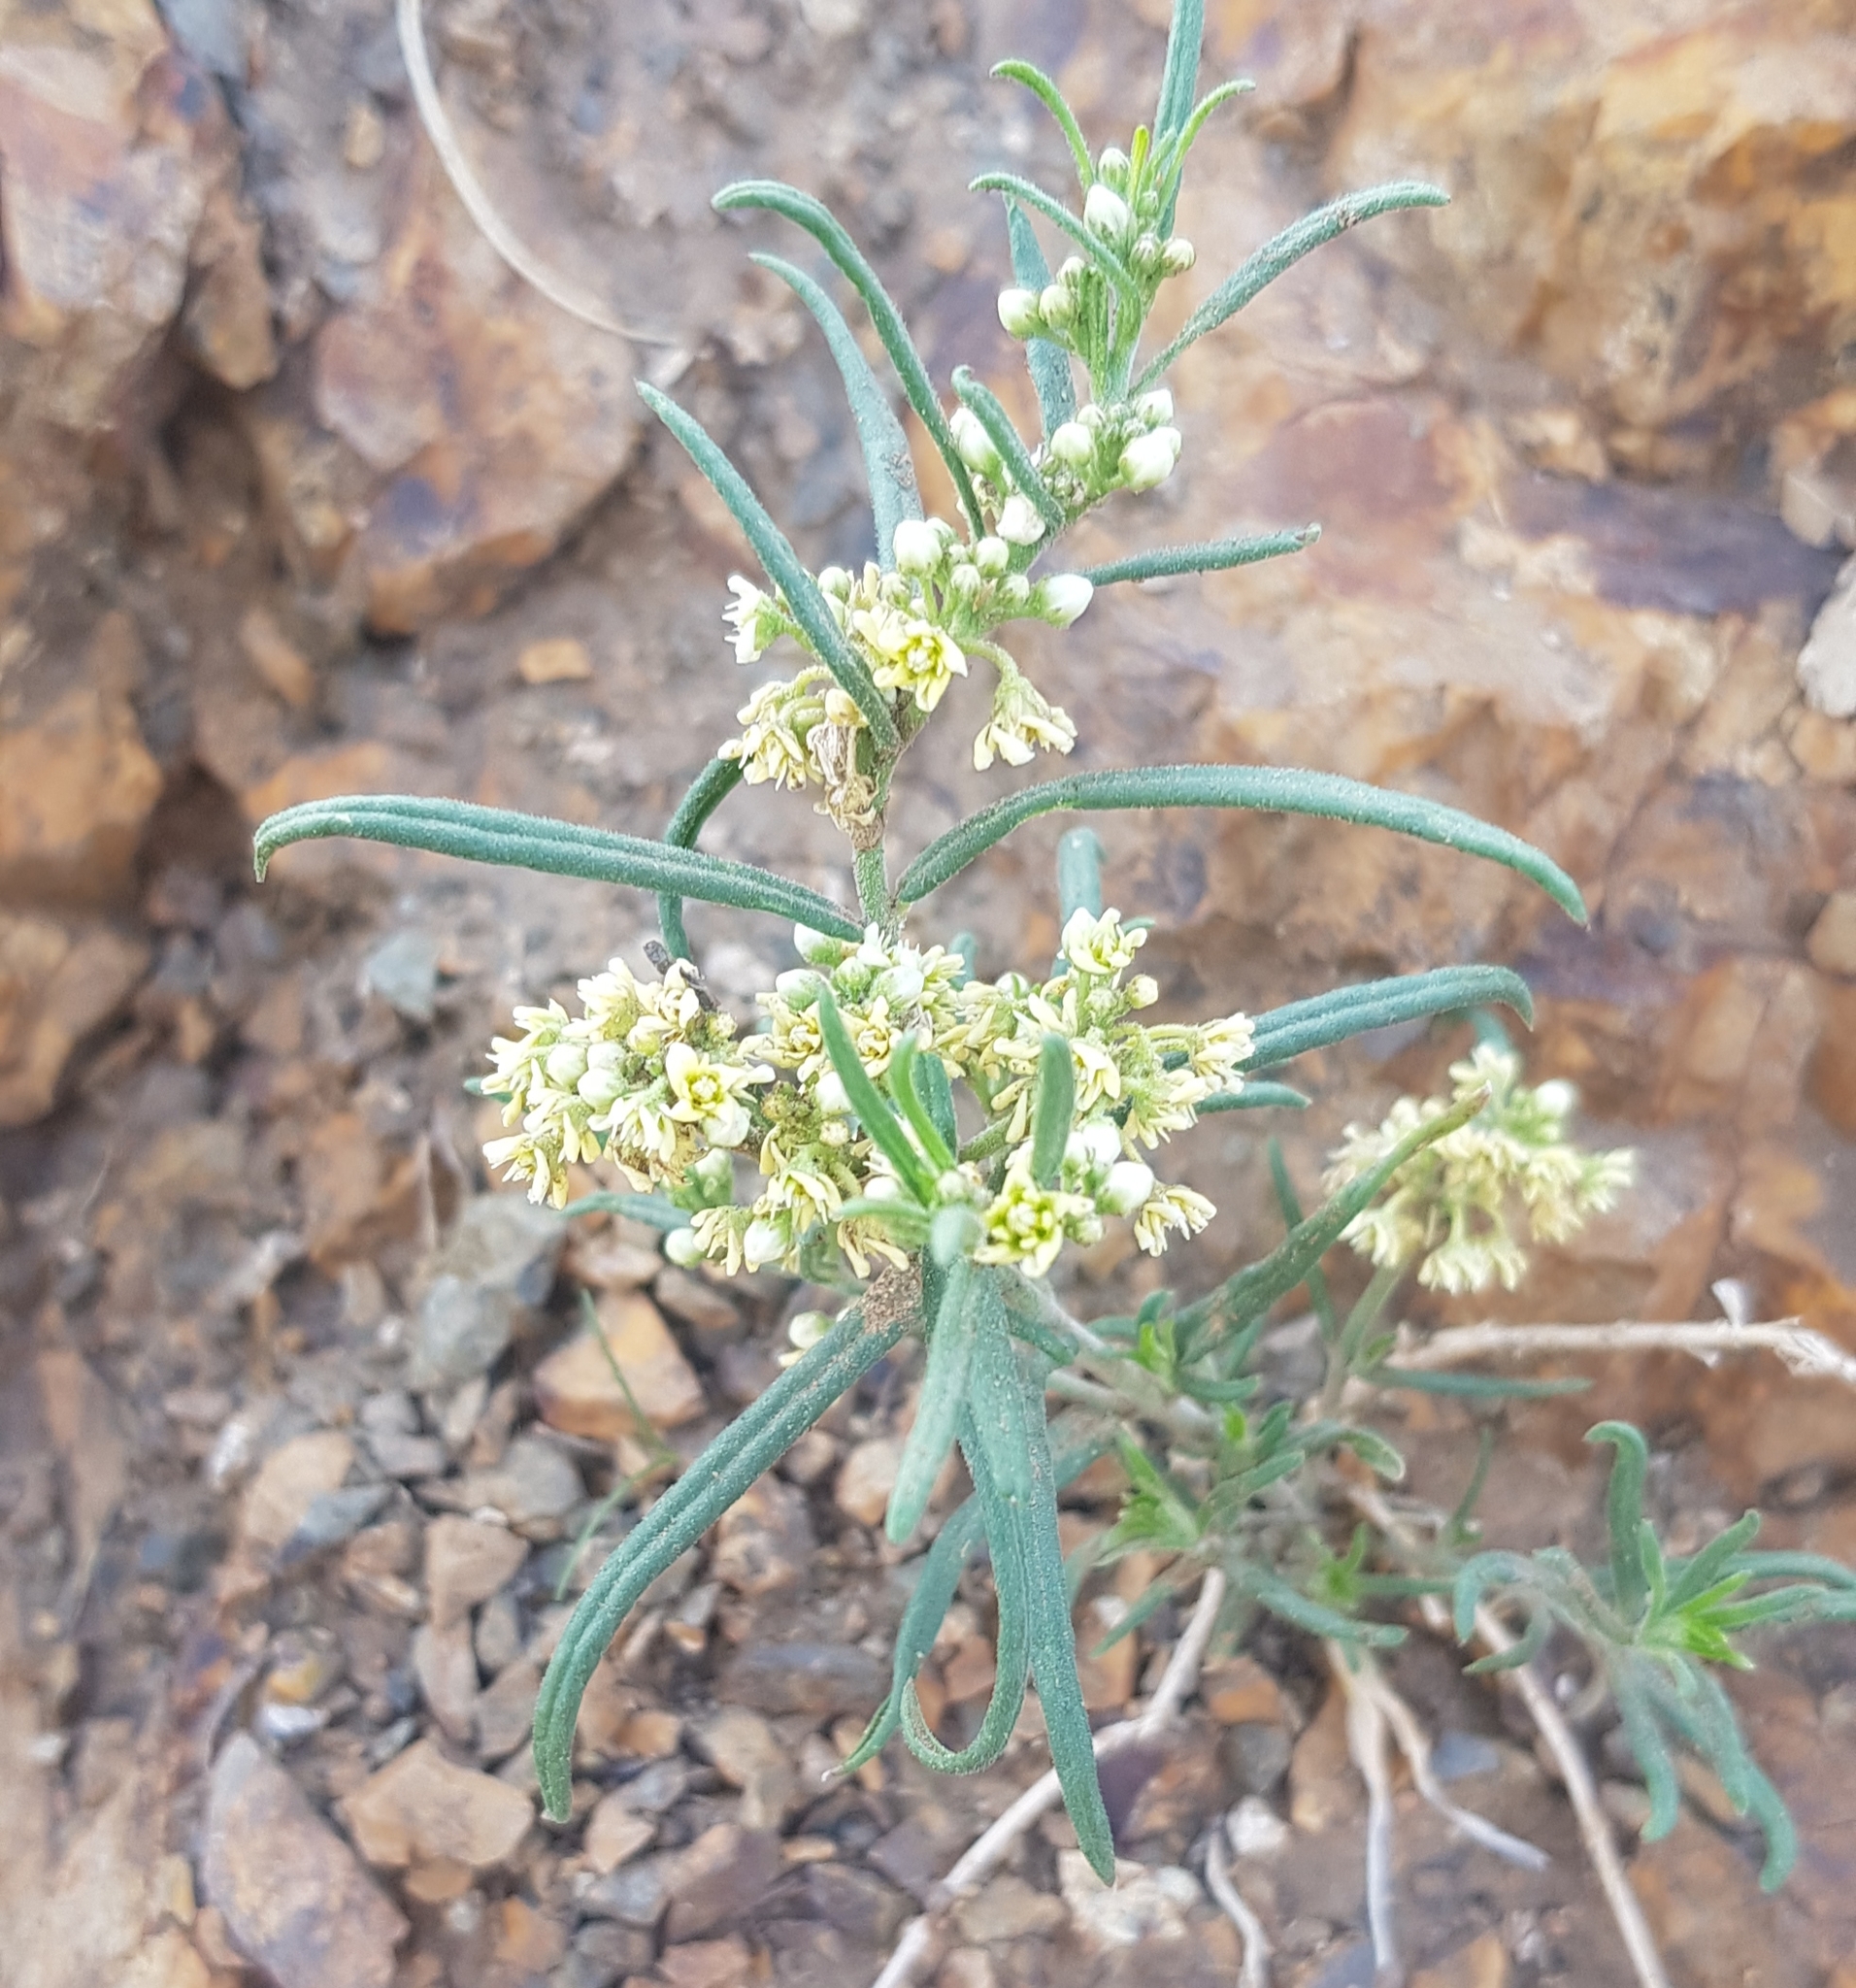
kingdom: Plantae
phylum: Tracheophyta
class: Magnoliopsida
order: Gentianales
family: Apocynaceae
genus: Cynanchum
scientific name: Cynanchum thesioides
